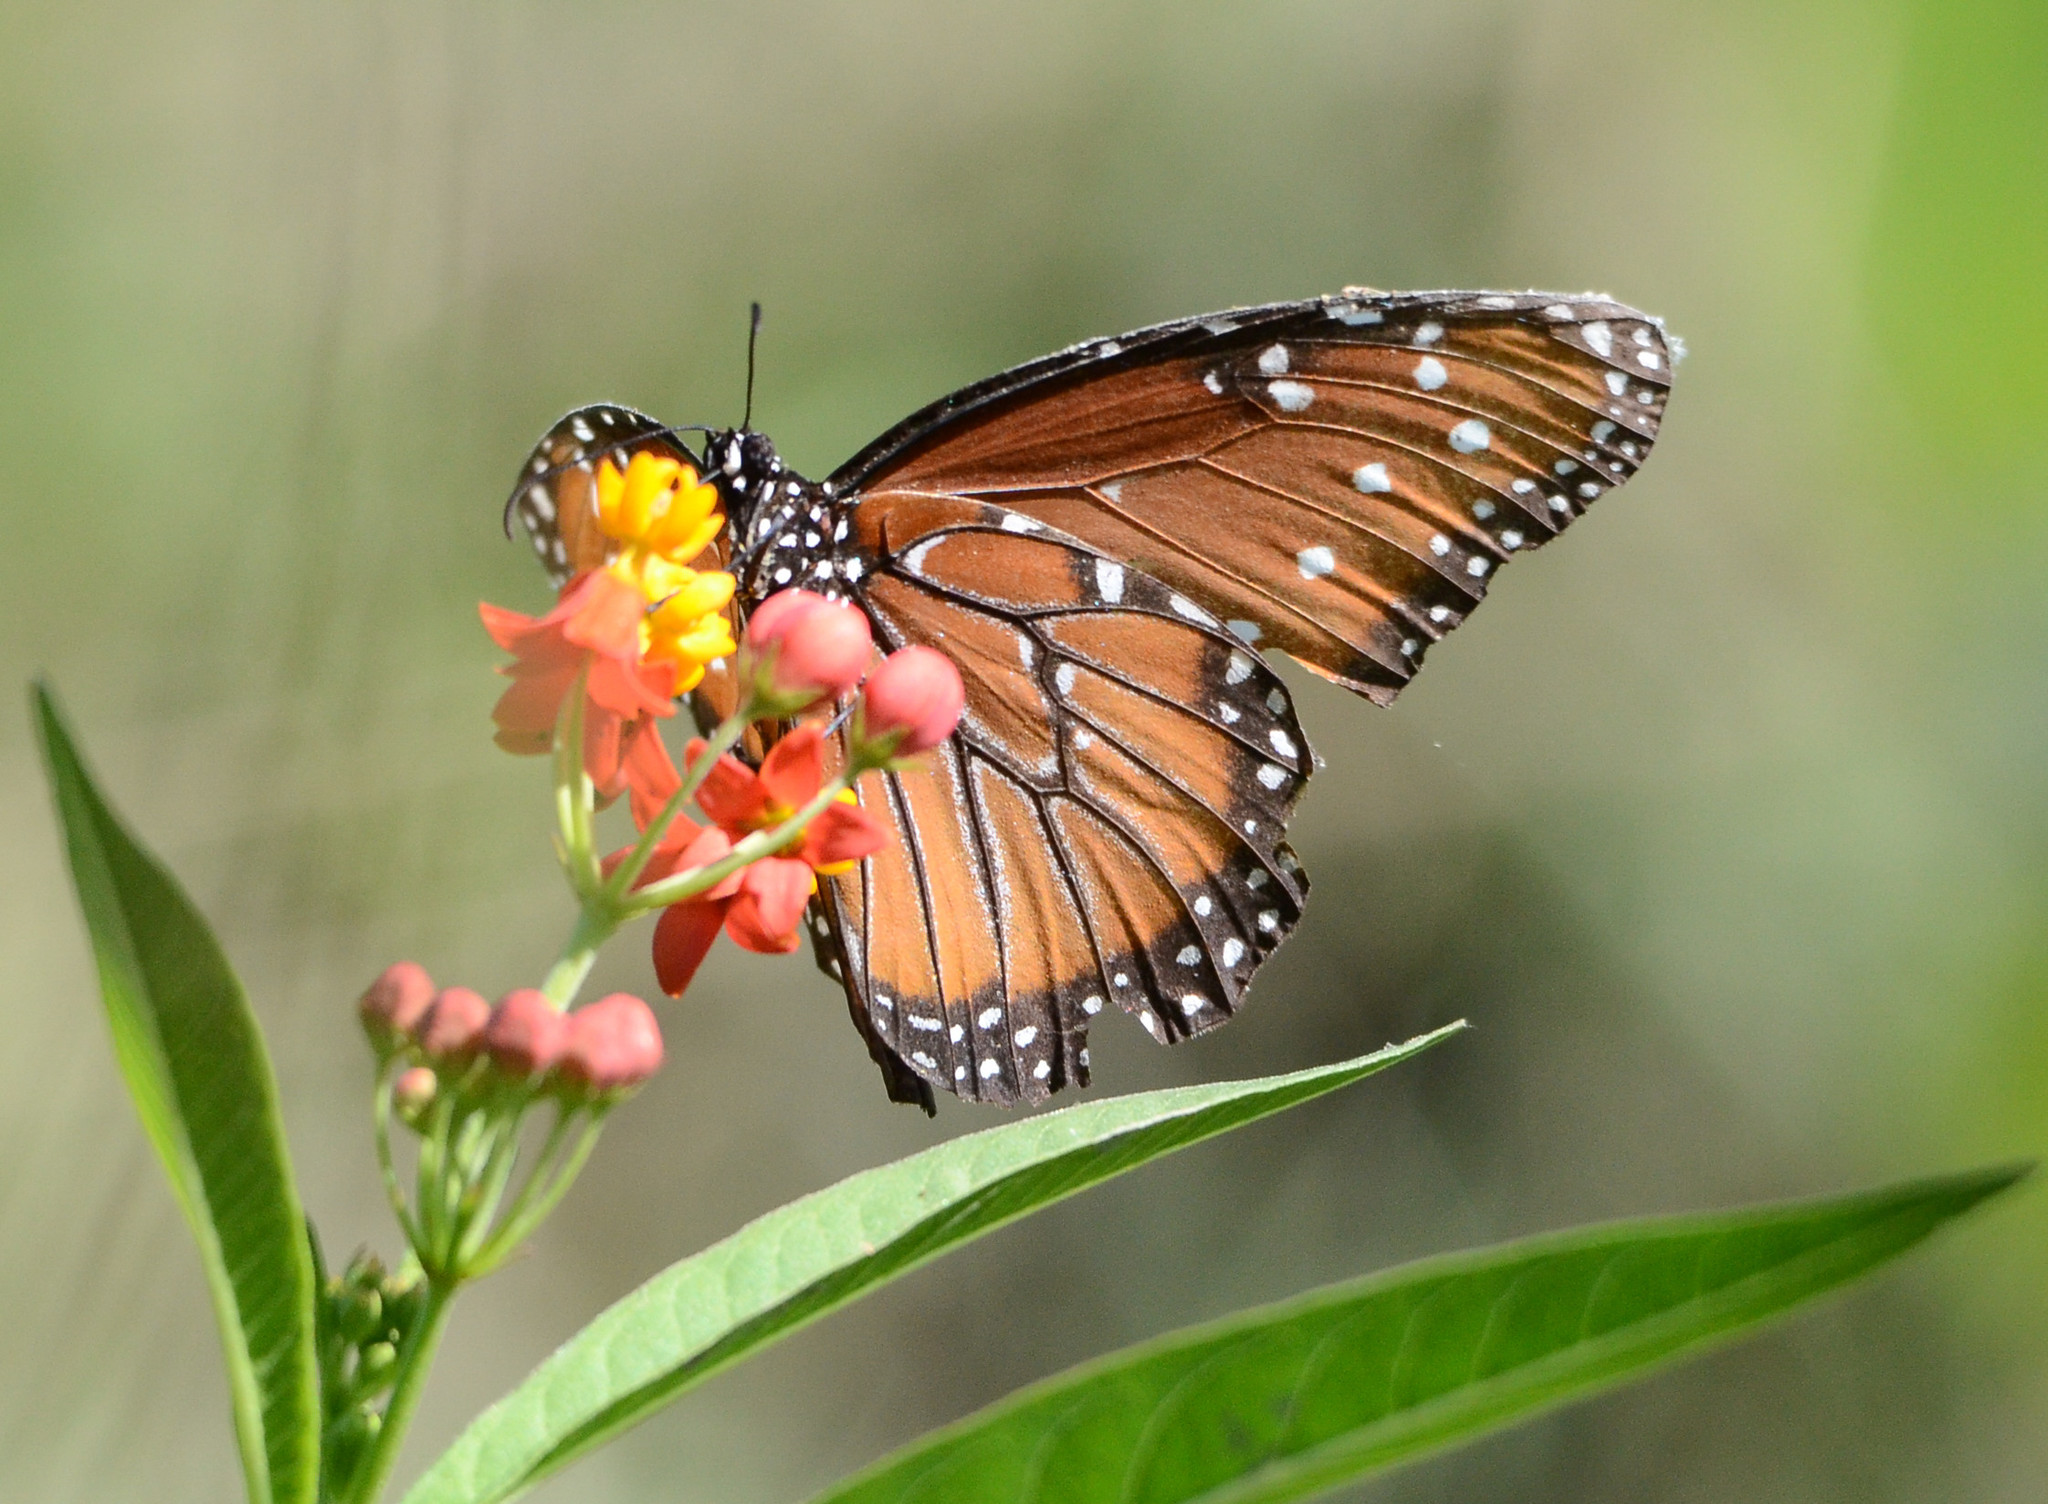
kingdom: Animalia
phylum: Arthropoda
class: Insecta
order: Lepidoptera
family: Nymphalidae
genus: Danaus
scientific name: Danaus gilippus
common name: Queen
